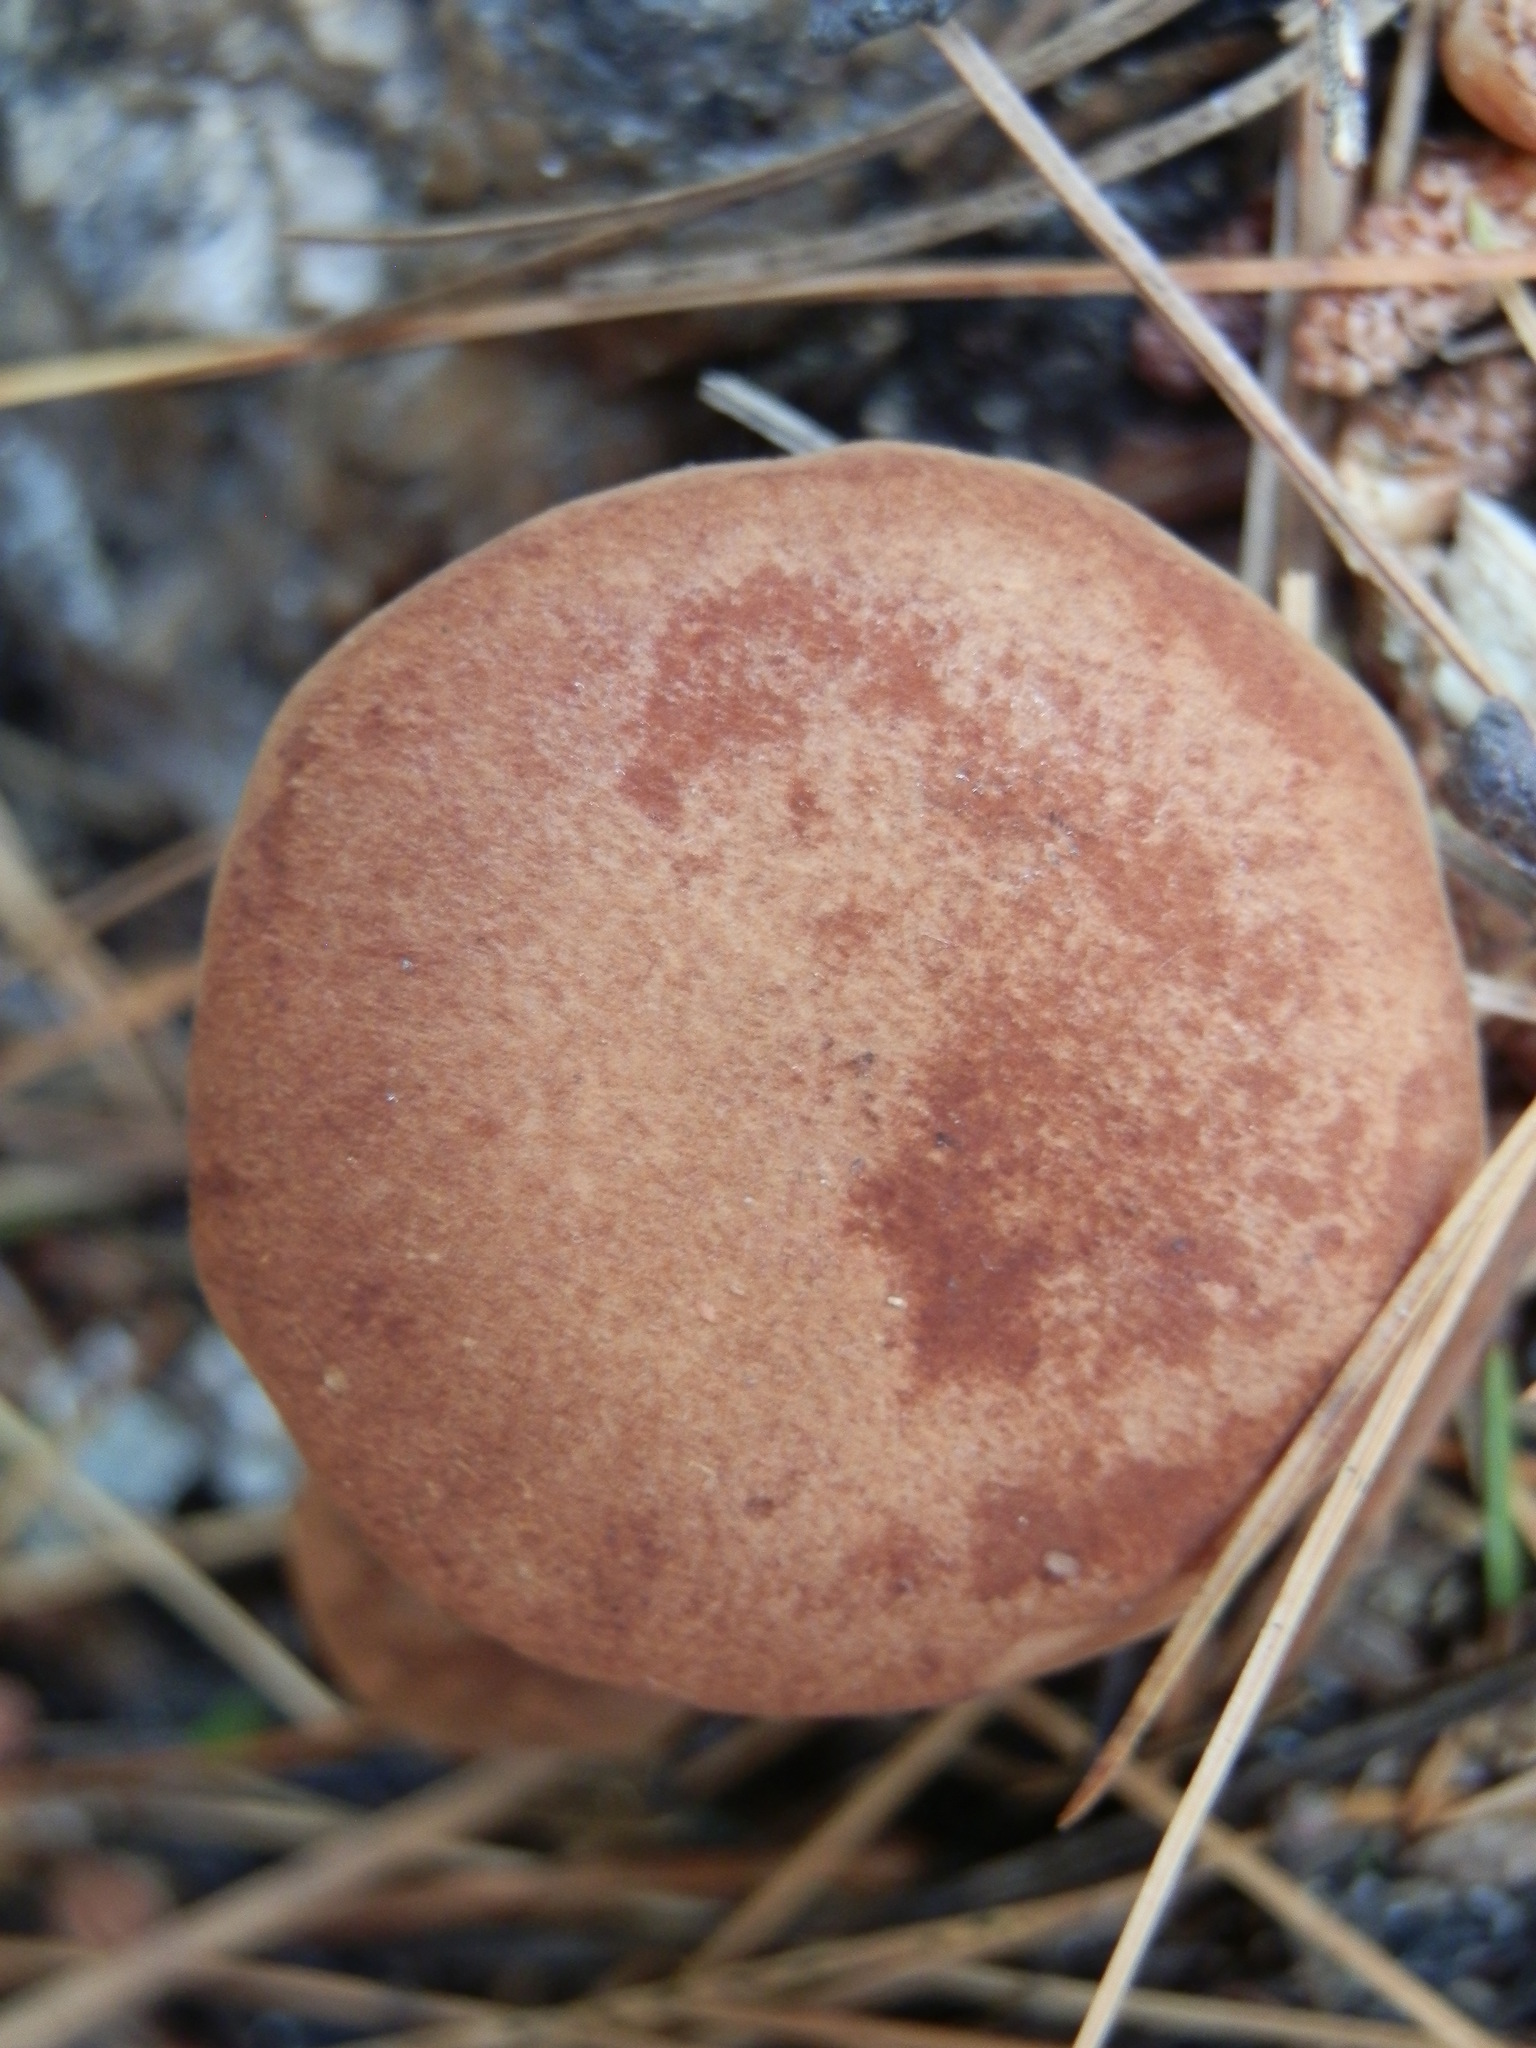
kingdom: Fungi
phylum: Basidiomycota
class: Agaricomycetes
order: Agaricales
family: Pseudoclitocybaceae
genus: Bonomyces
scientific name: Bonomyces sinopicus
